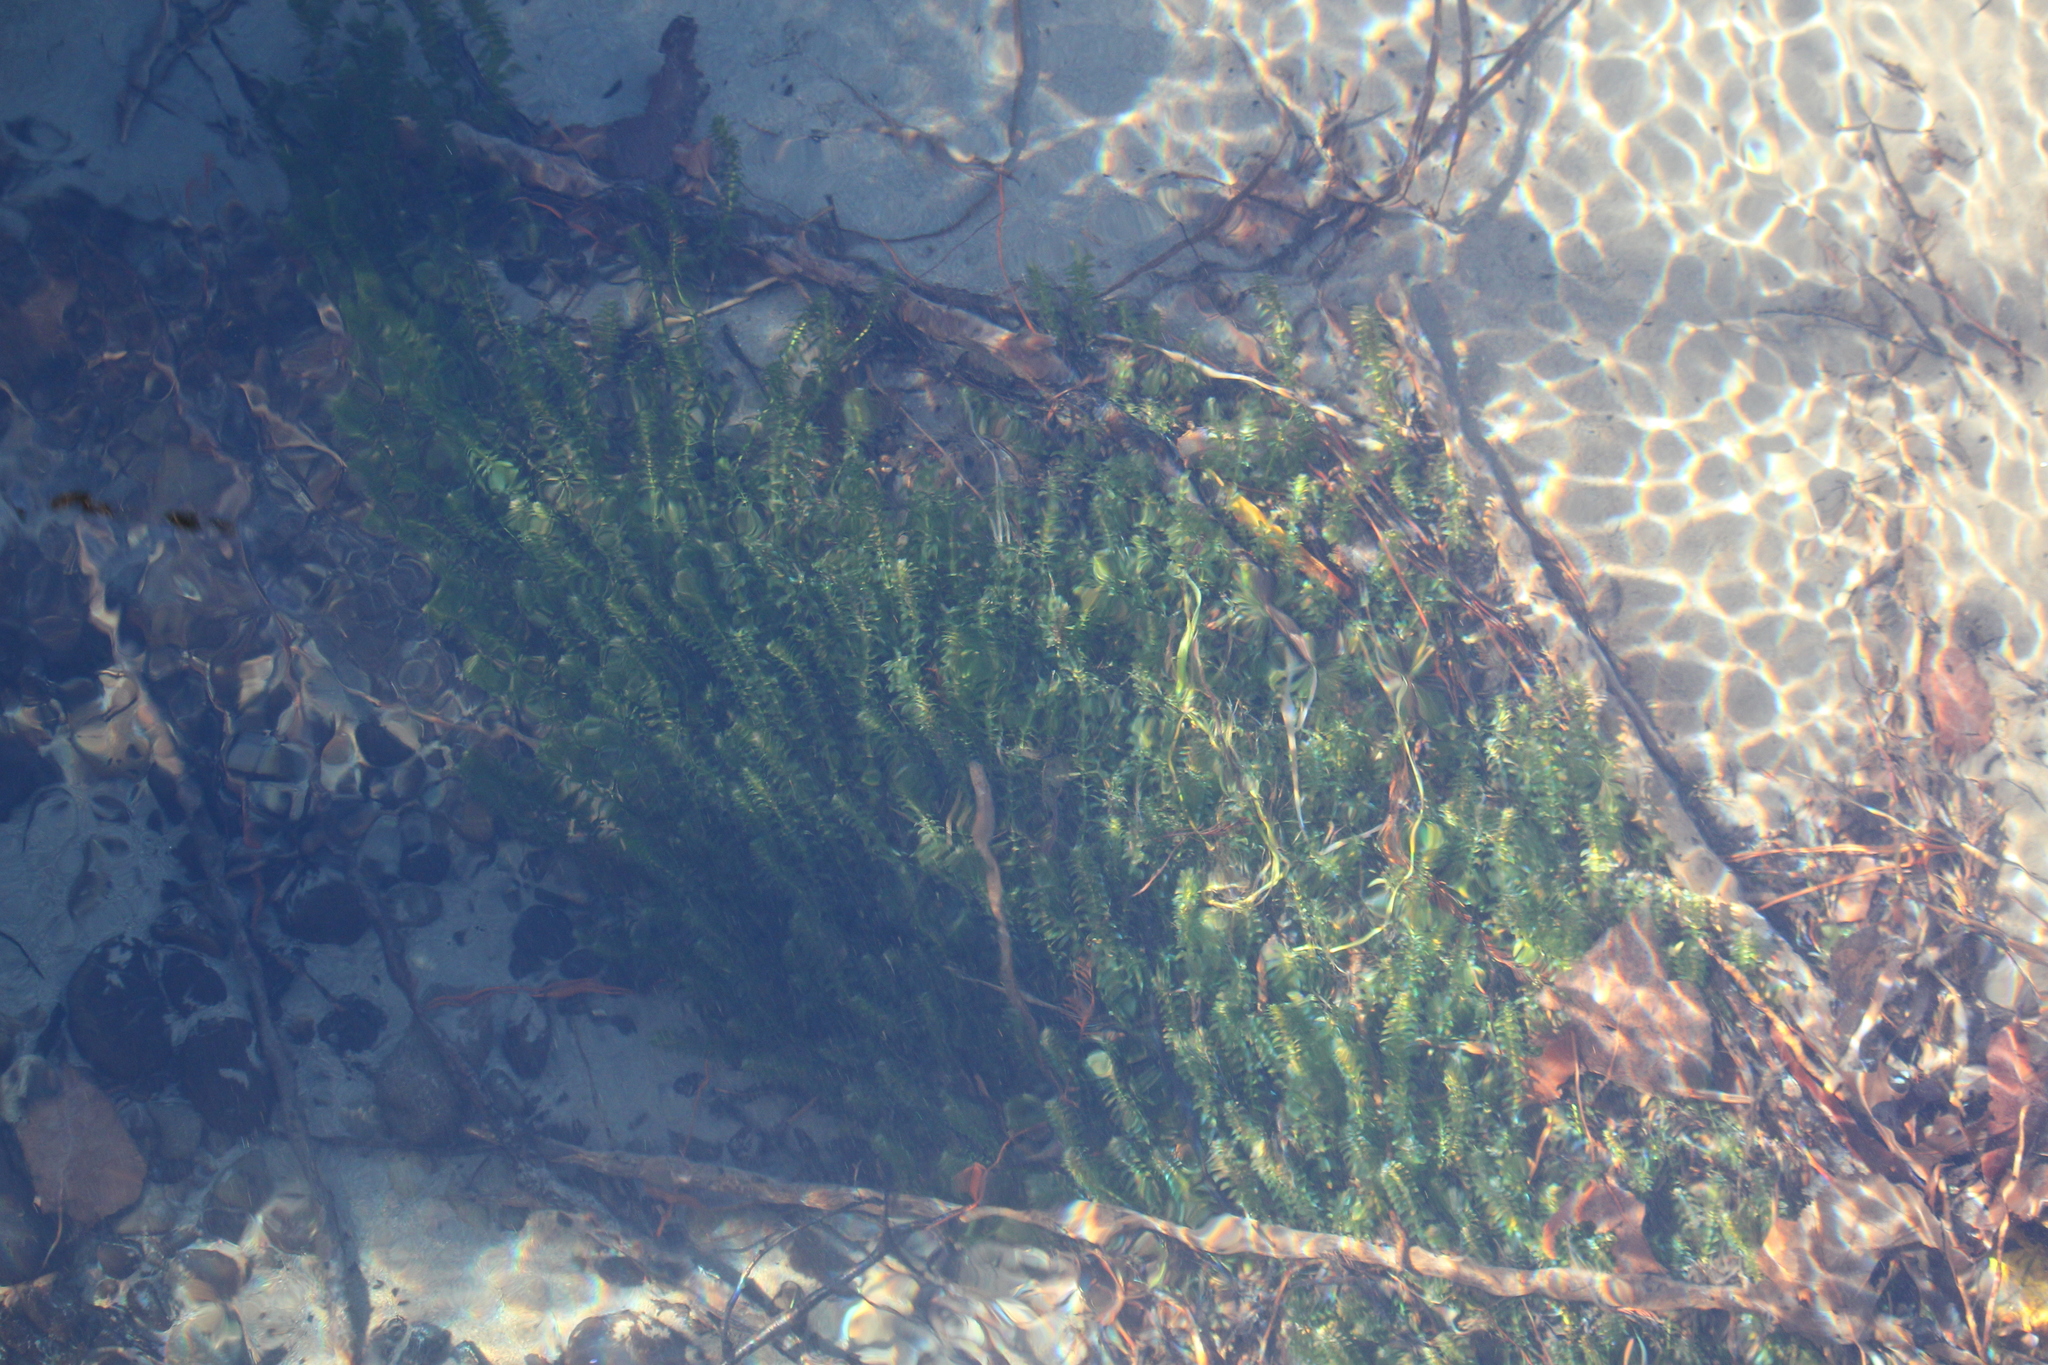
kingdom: Plantae
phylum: Tracheophyta
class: Liliopsida
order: Alismatales
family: Hydrocharitaceae
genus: Elodea
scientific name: Elodea canadensis
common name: Canadian waterweed
